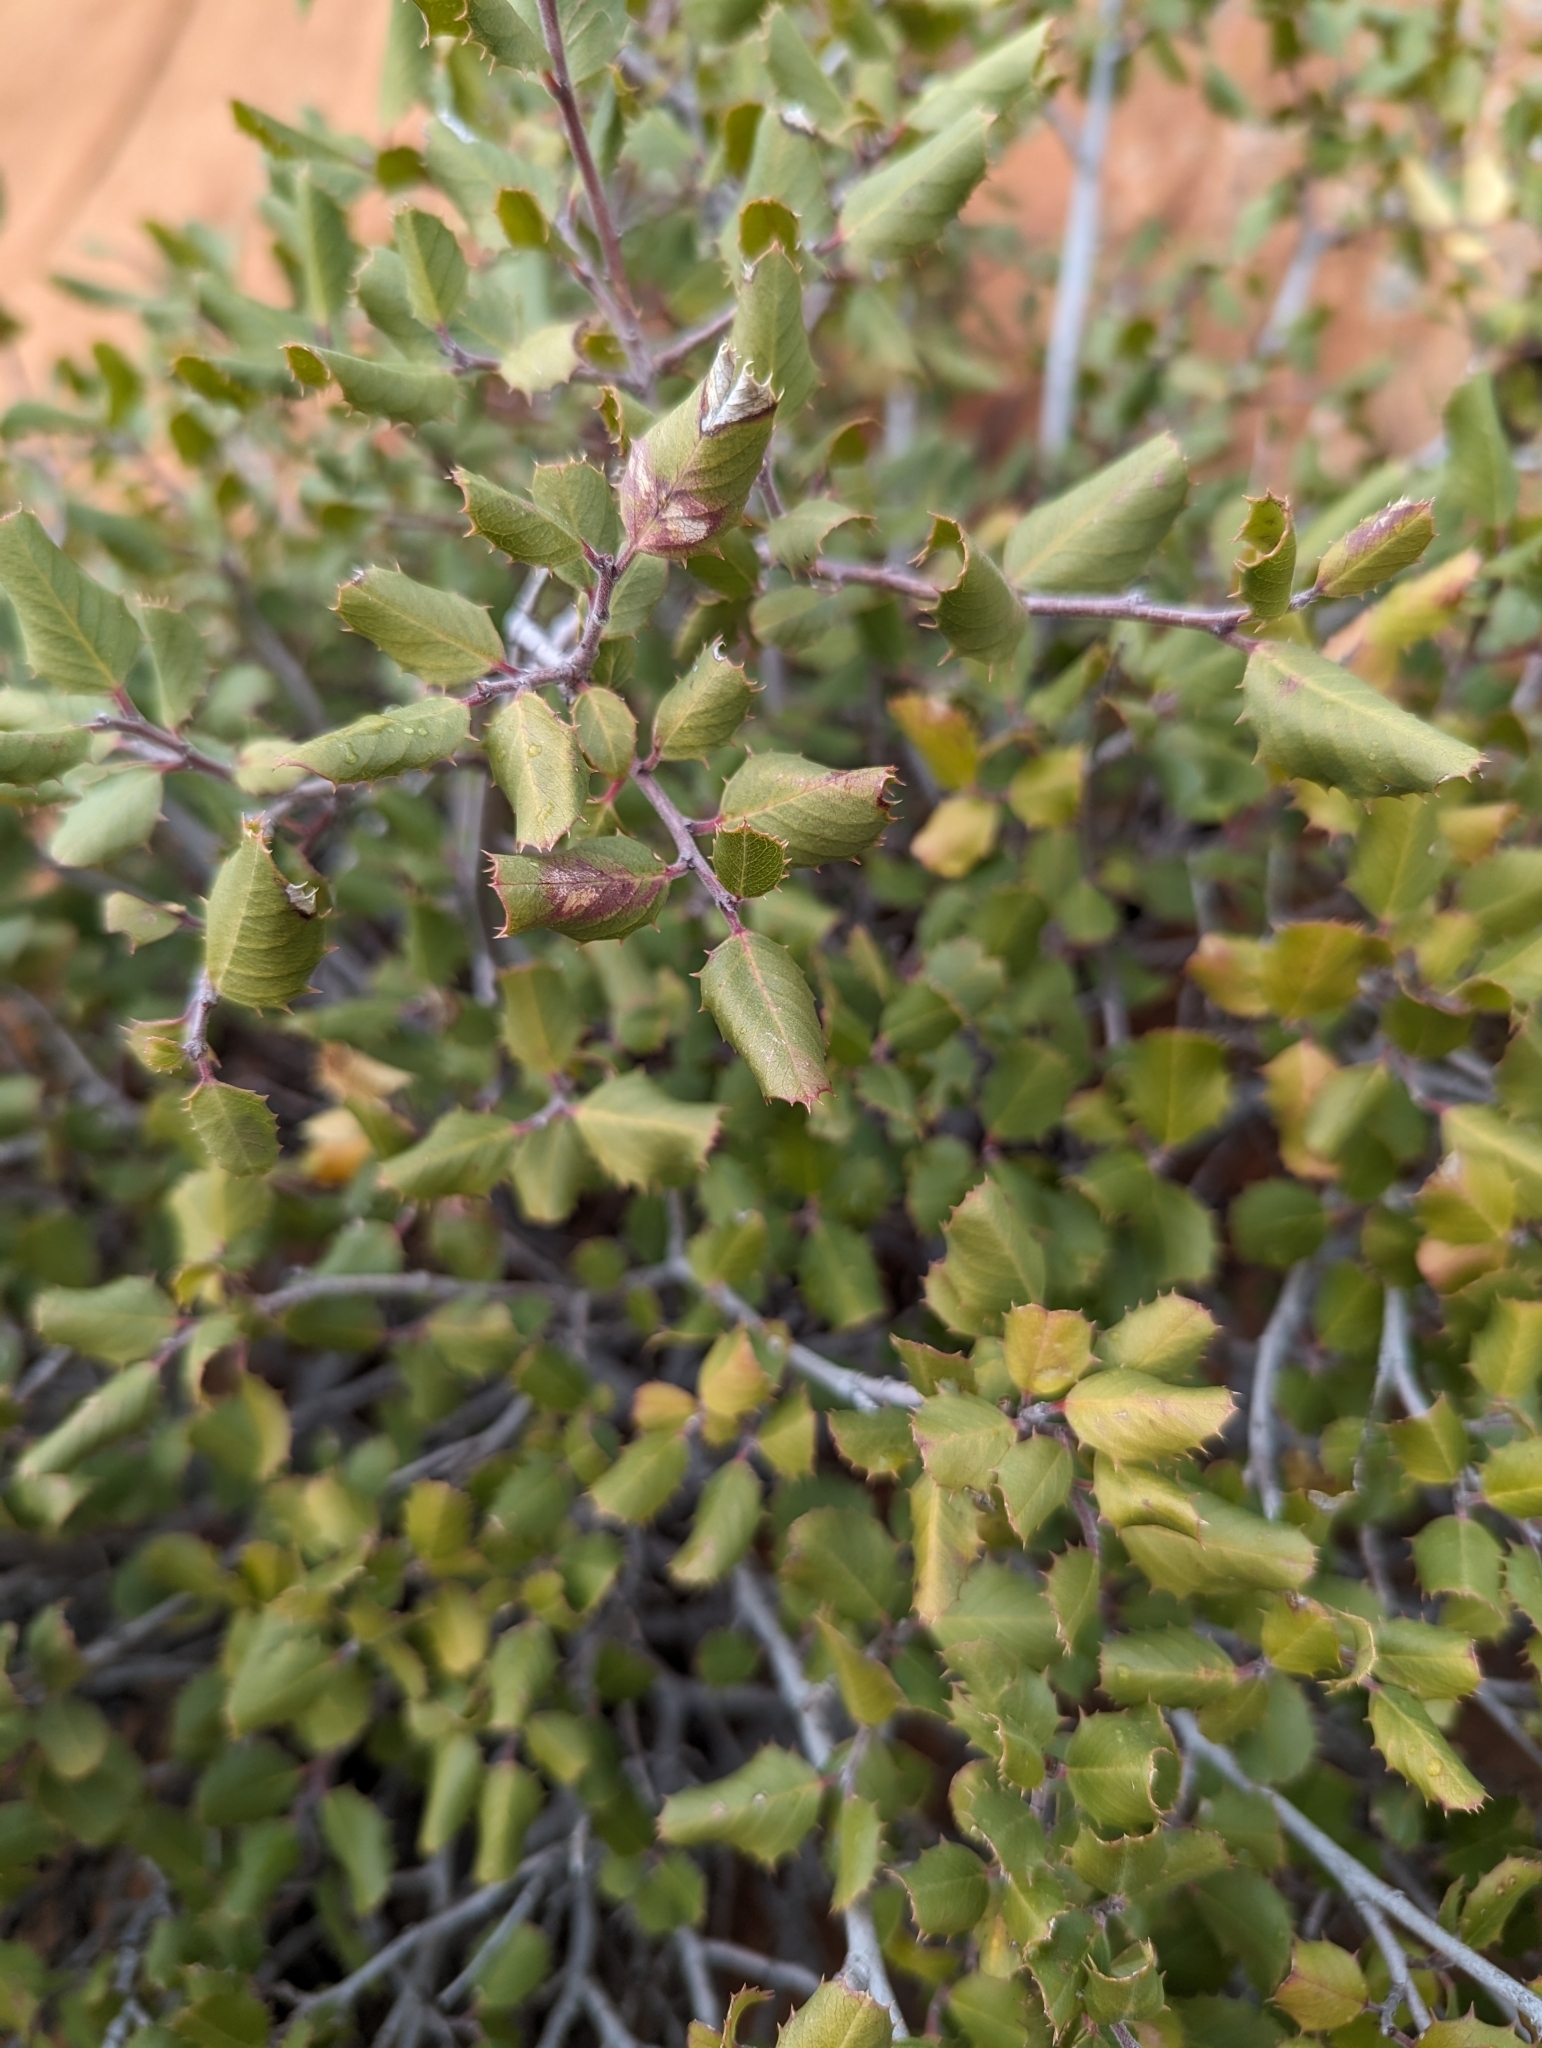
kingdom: Plantae
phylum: Tracheophyta
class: Magnoliopsida
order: Rosales
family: Rhamnaceae
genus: Endotropis
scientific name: Endotropis crocea
